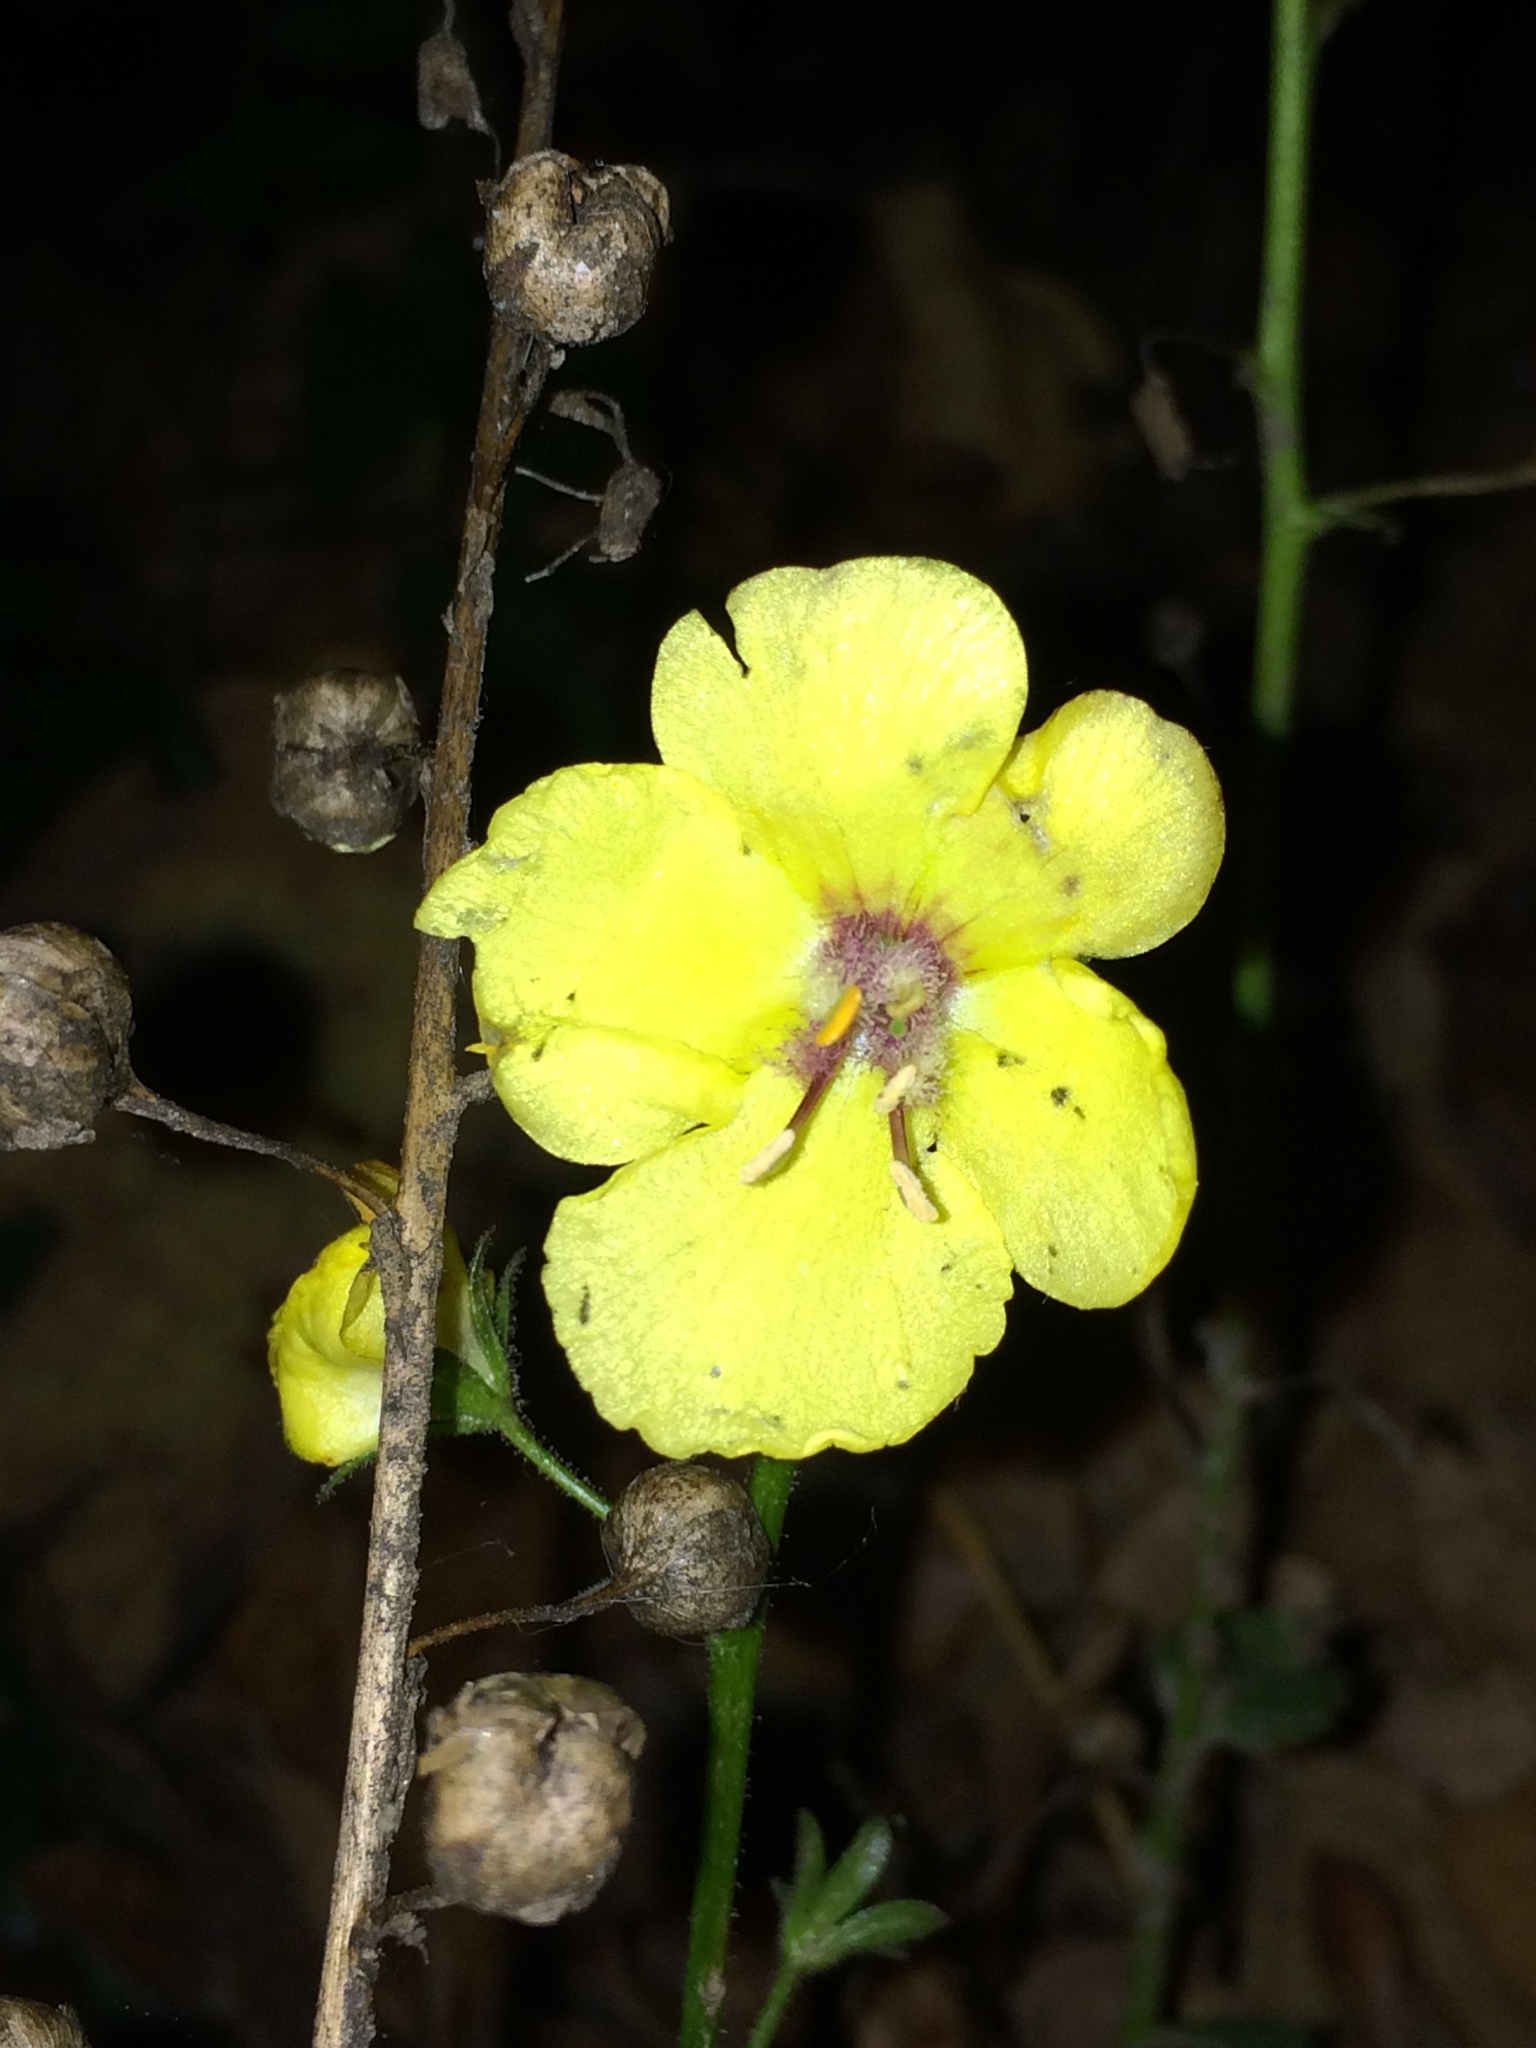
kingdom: Plantae
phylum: Tracheophyta
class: Magnoliopsida
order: Lamiales
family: Scrophulariaceae
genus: Verbascum
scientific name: Verbascum blattaria
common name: Moth mullein
